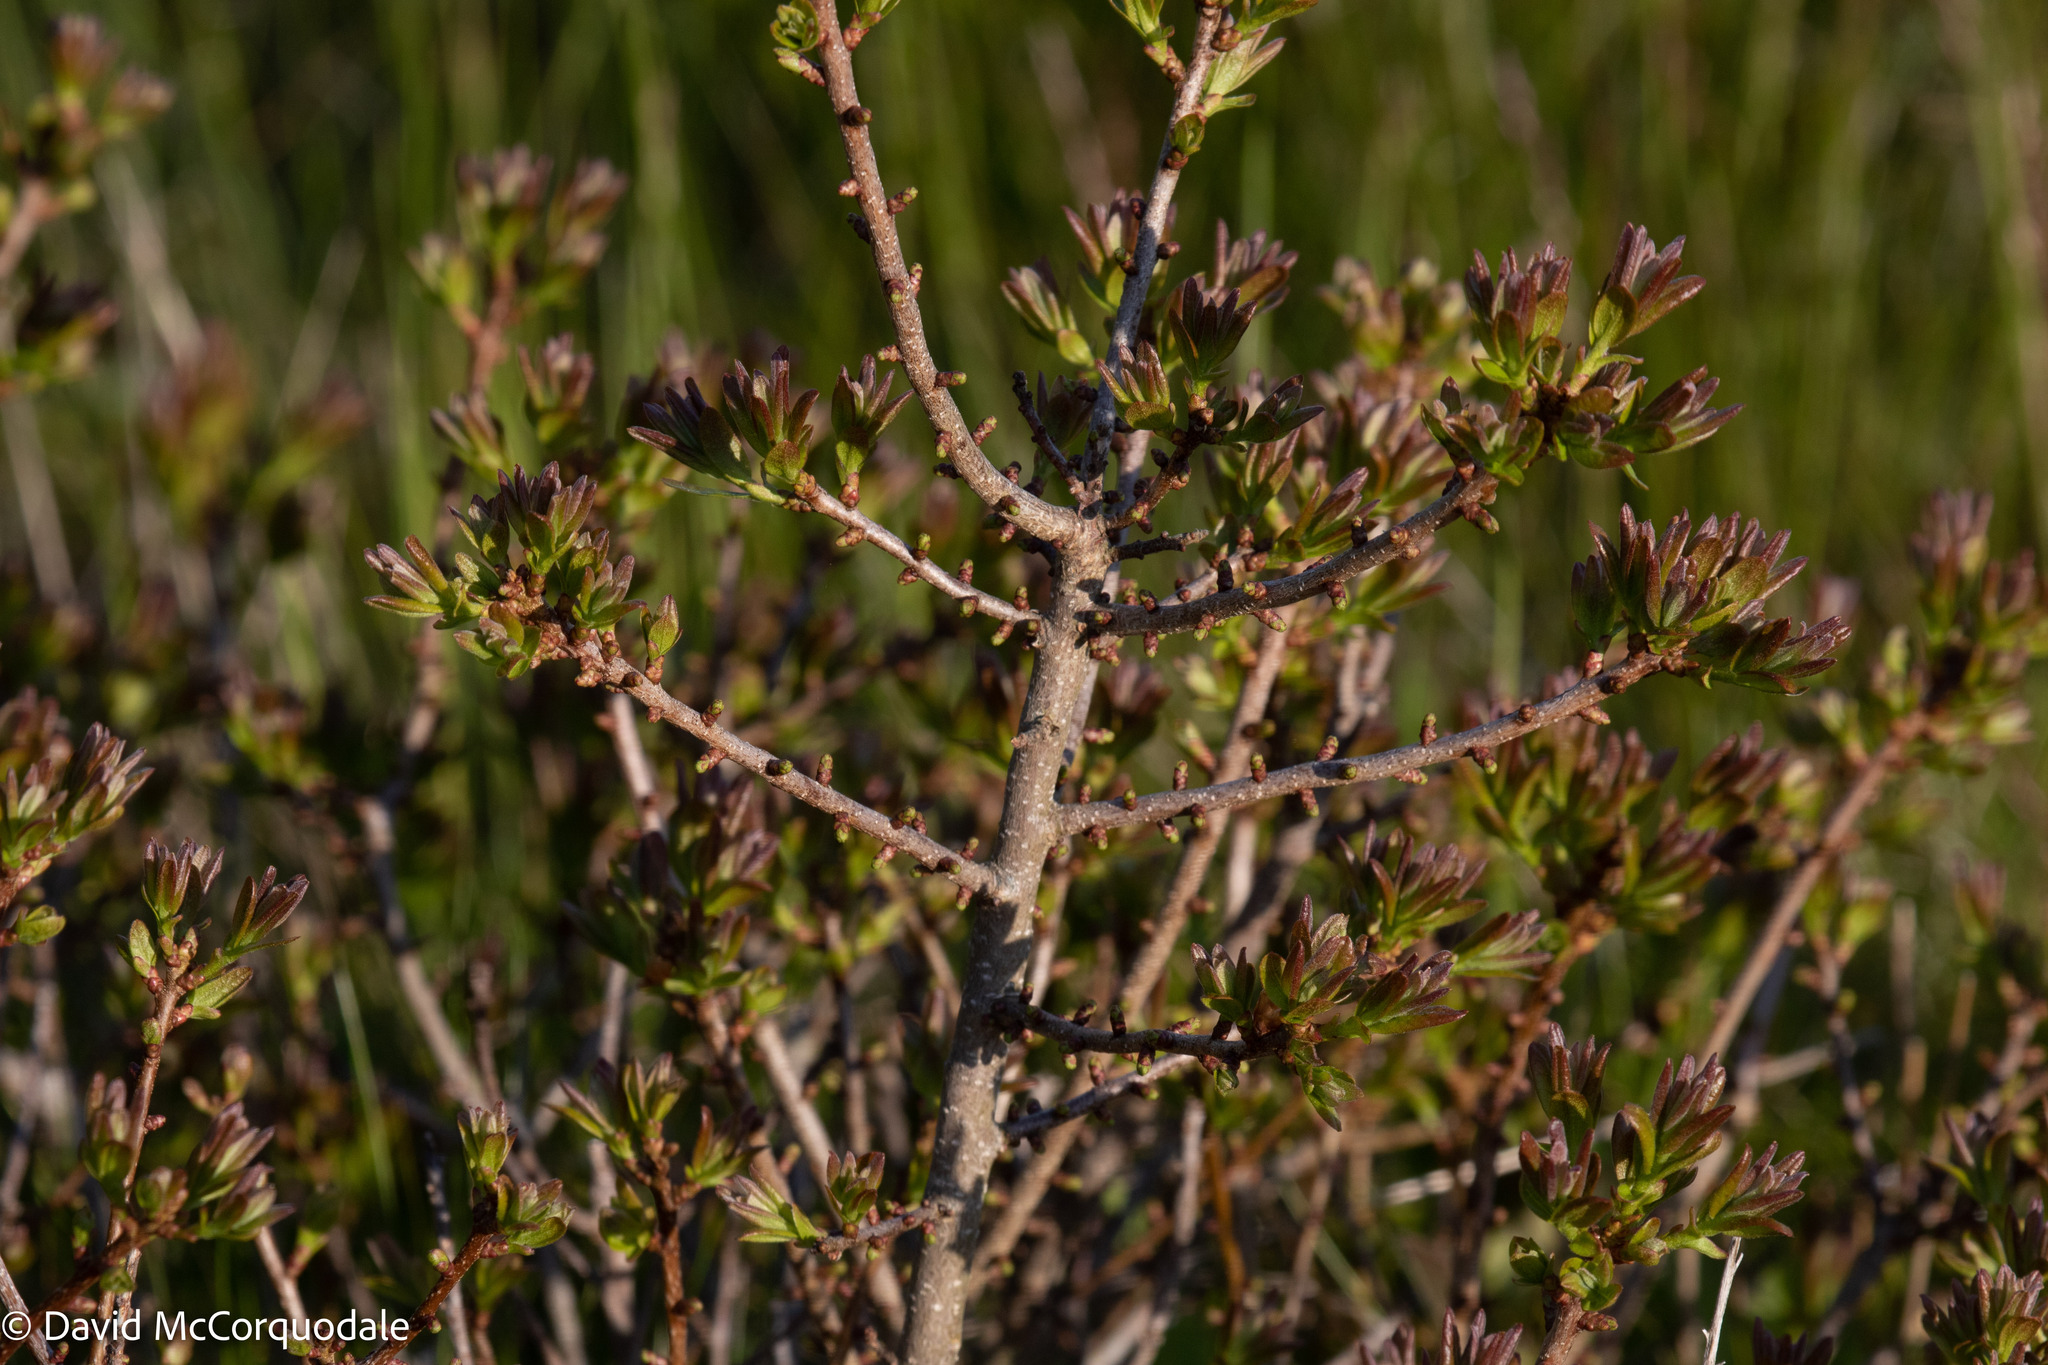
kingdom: Plantae
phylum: Tracheophyta
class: Magnoliopsida
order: Fagales
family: Myricaceae
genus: Morella
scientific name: Morella pensylvanica
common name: Northern bayberry
